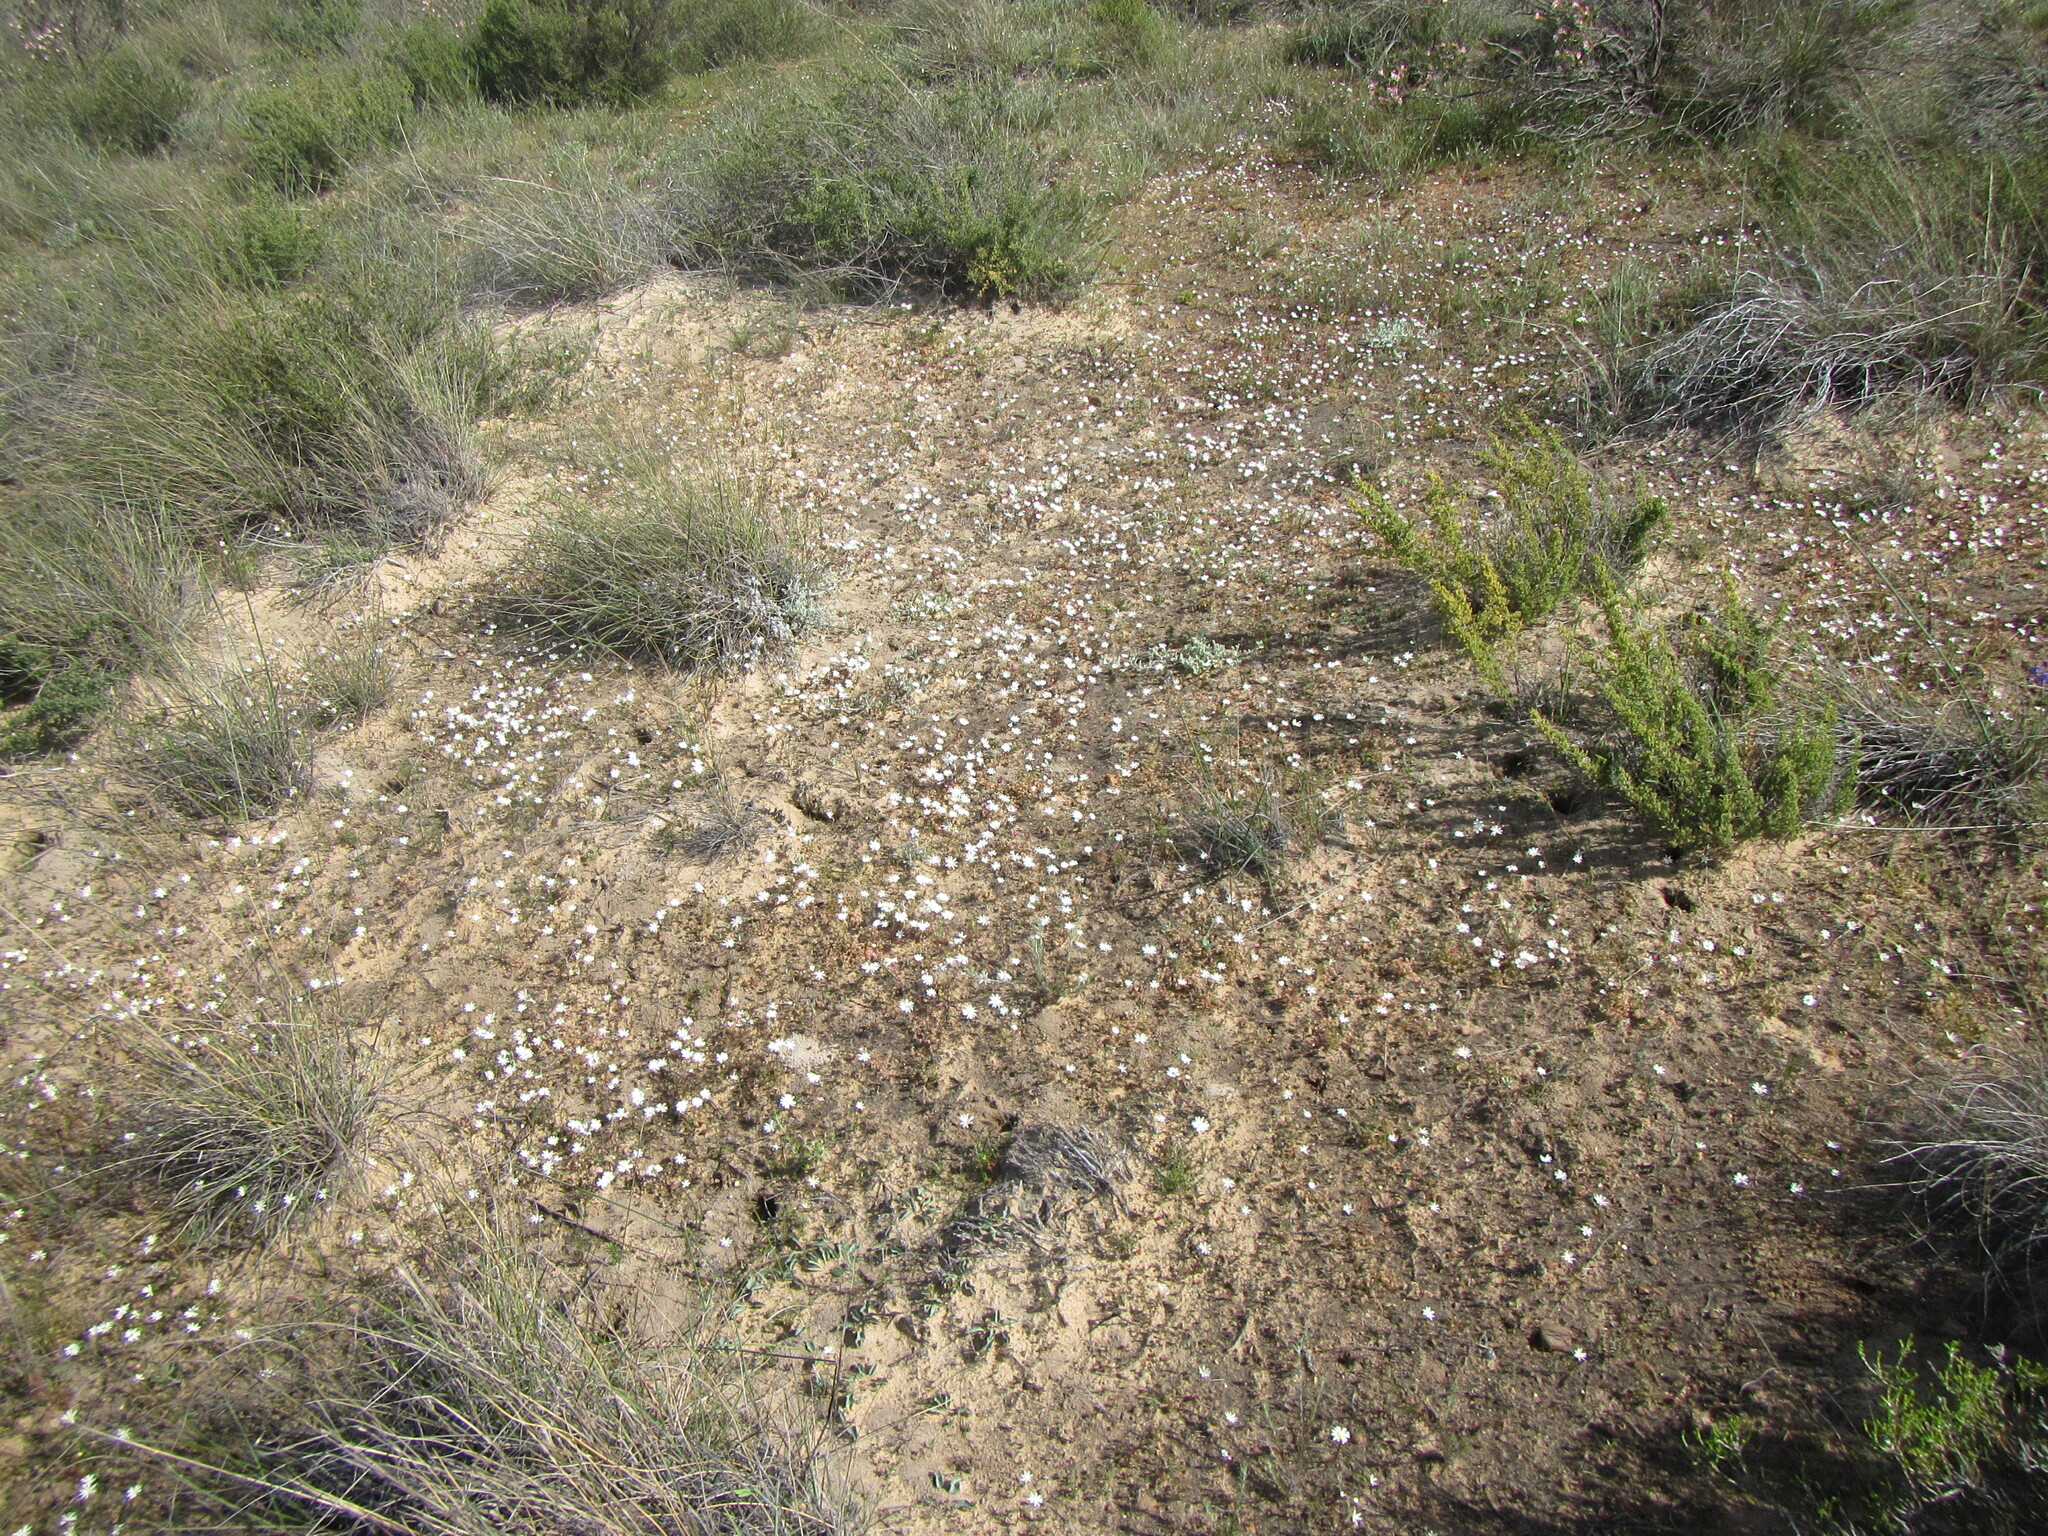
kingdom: Plantae
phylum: Tracheophyta
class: Magnoliopsida
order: Asterales
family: Asteraceae
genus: Felicia
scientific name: Felicia tenella
